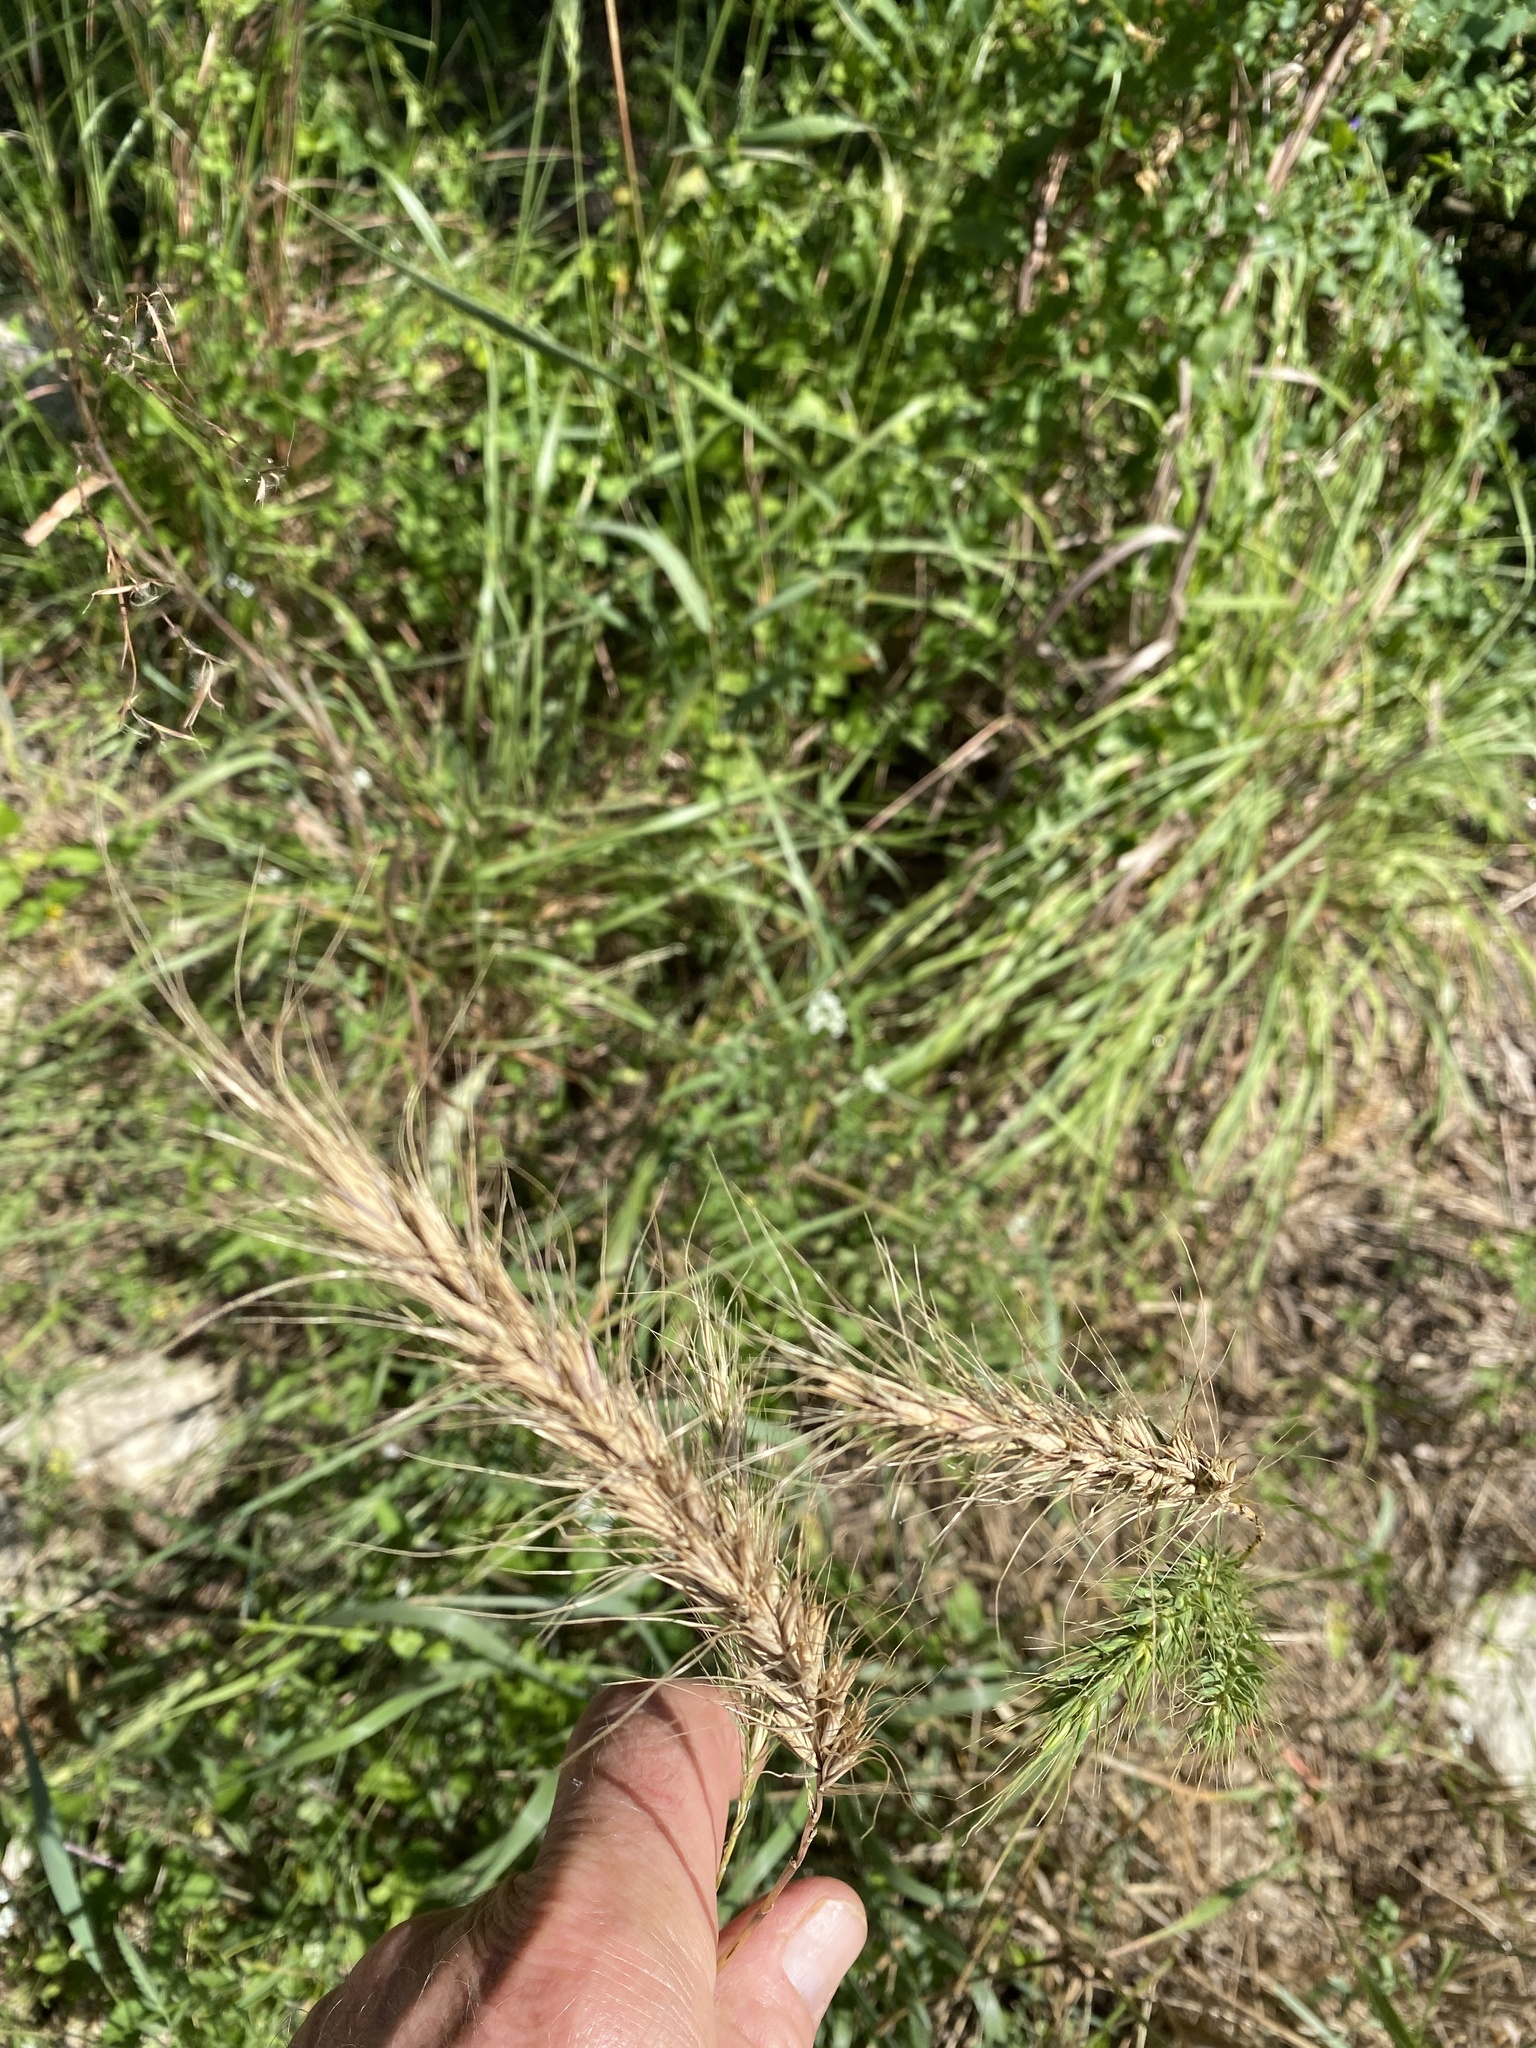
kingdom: Plantae
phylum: Tracheophyta
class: Liliopsida
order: Poales
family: Poaceae
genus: Elymus
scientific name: Elymus canadensis
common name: Canada wild rye
